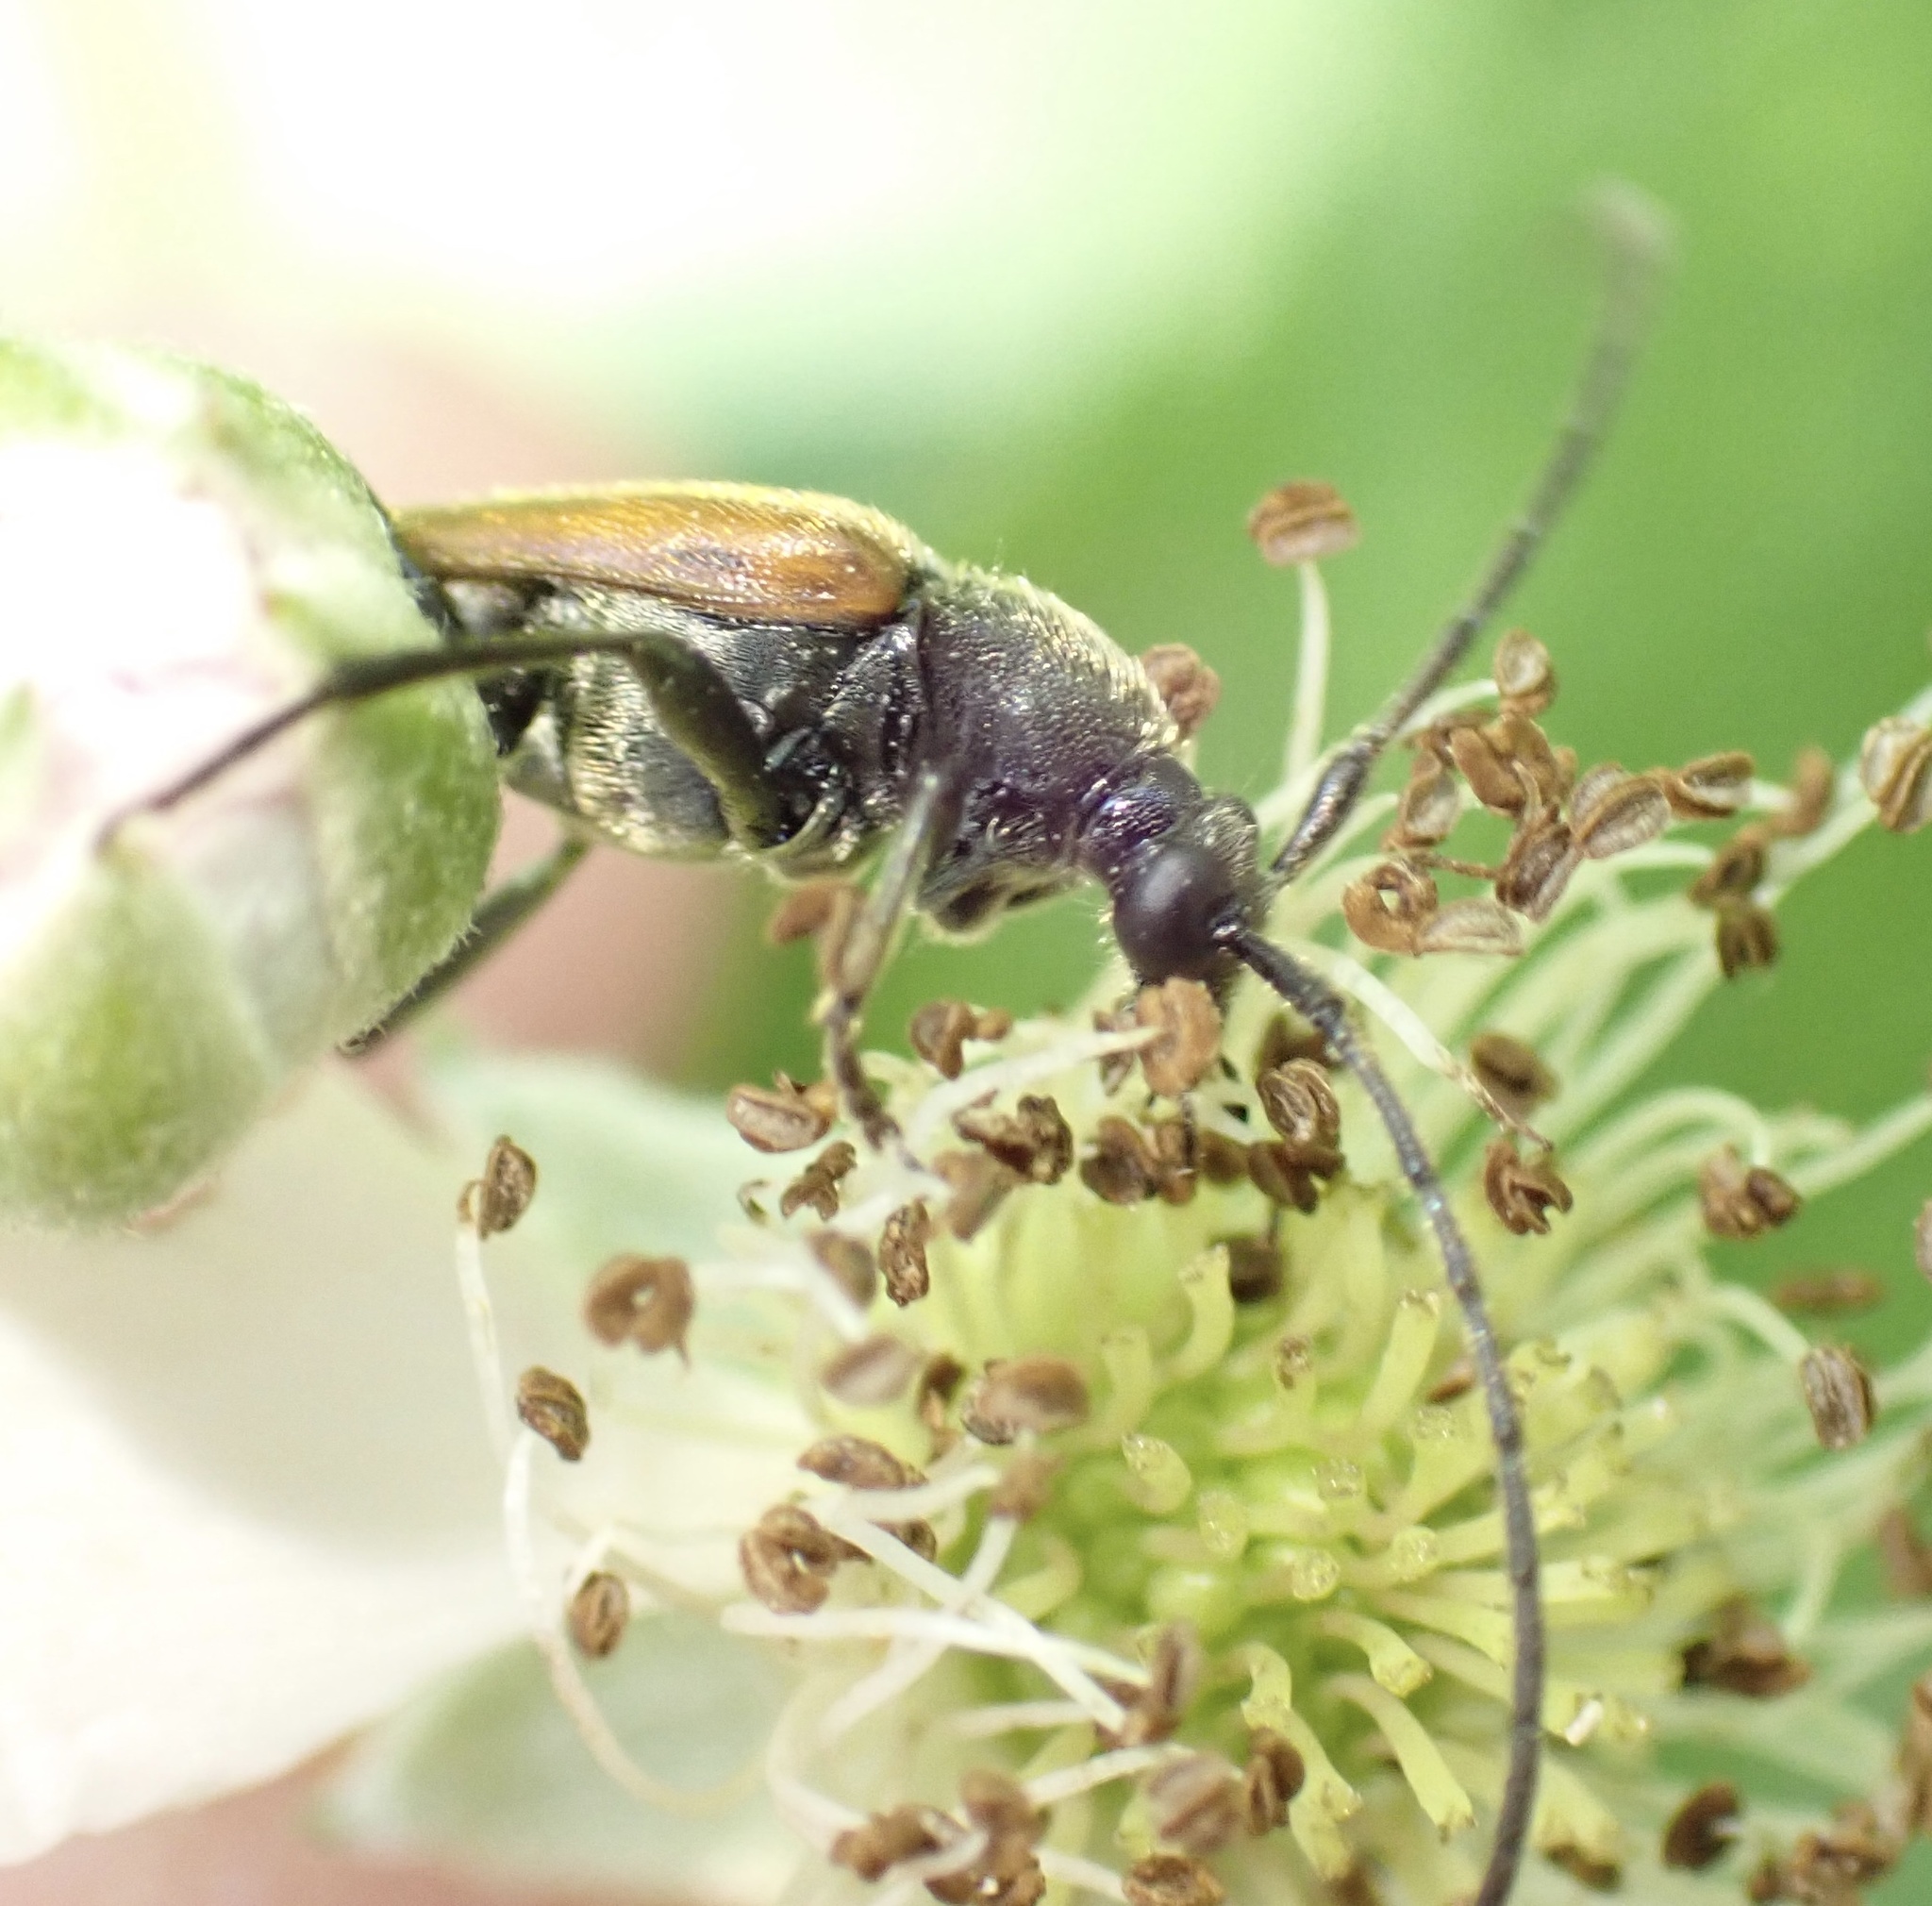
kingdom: Animalia
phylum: Arthropoda
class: Insecta
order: Coleoptera
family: Cerambycidae
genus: Stenurella
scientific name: Stenurella melanura
